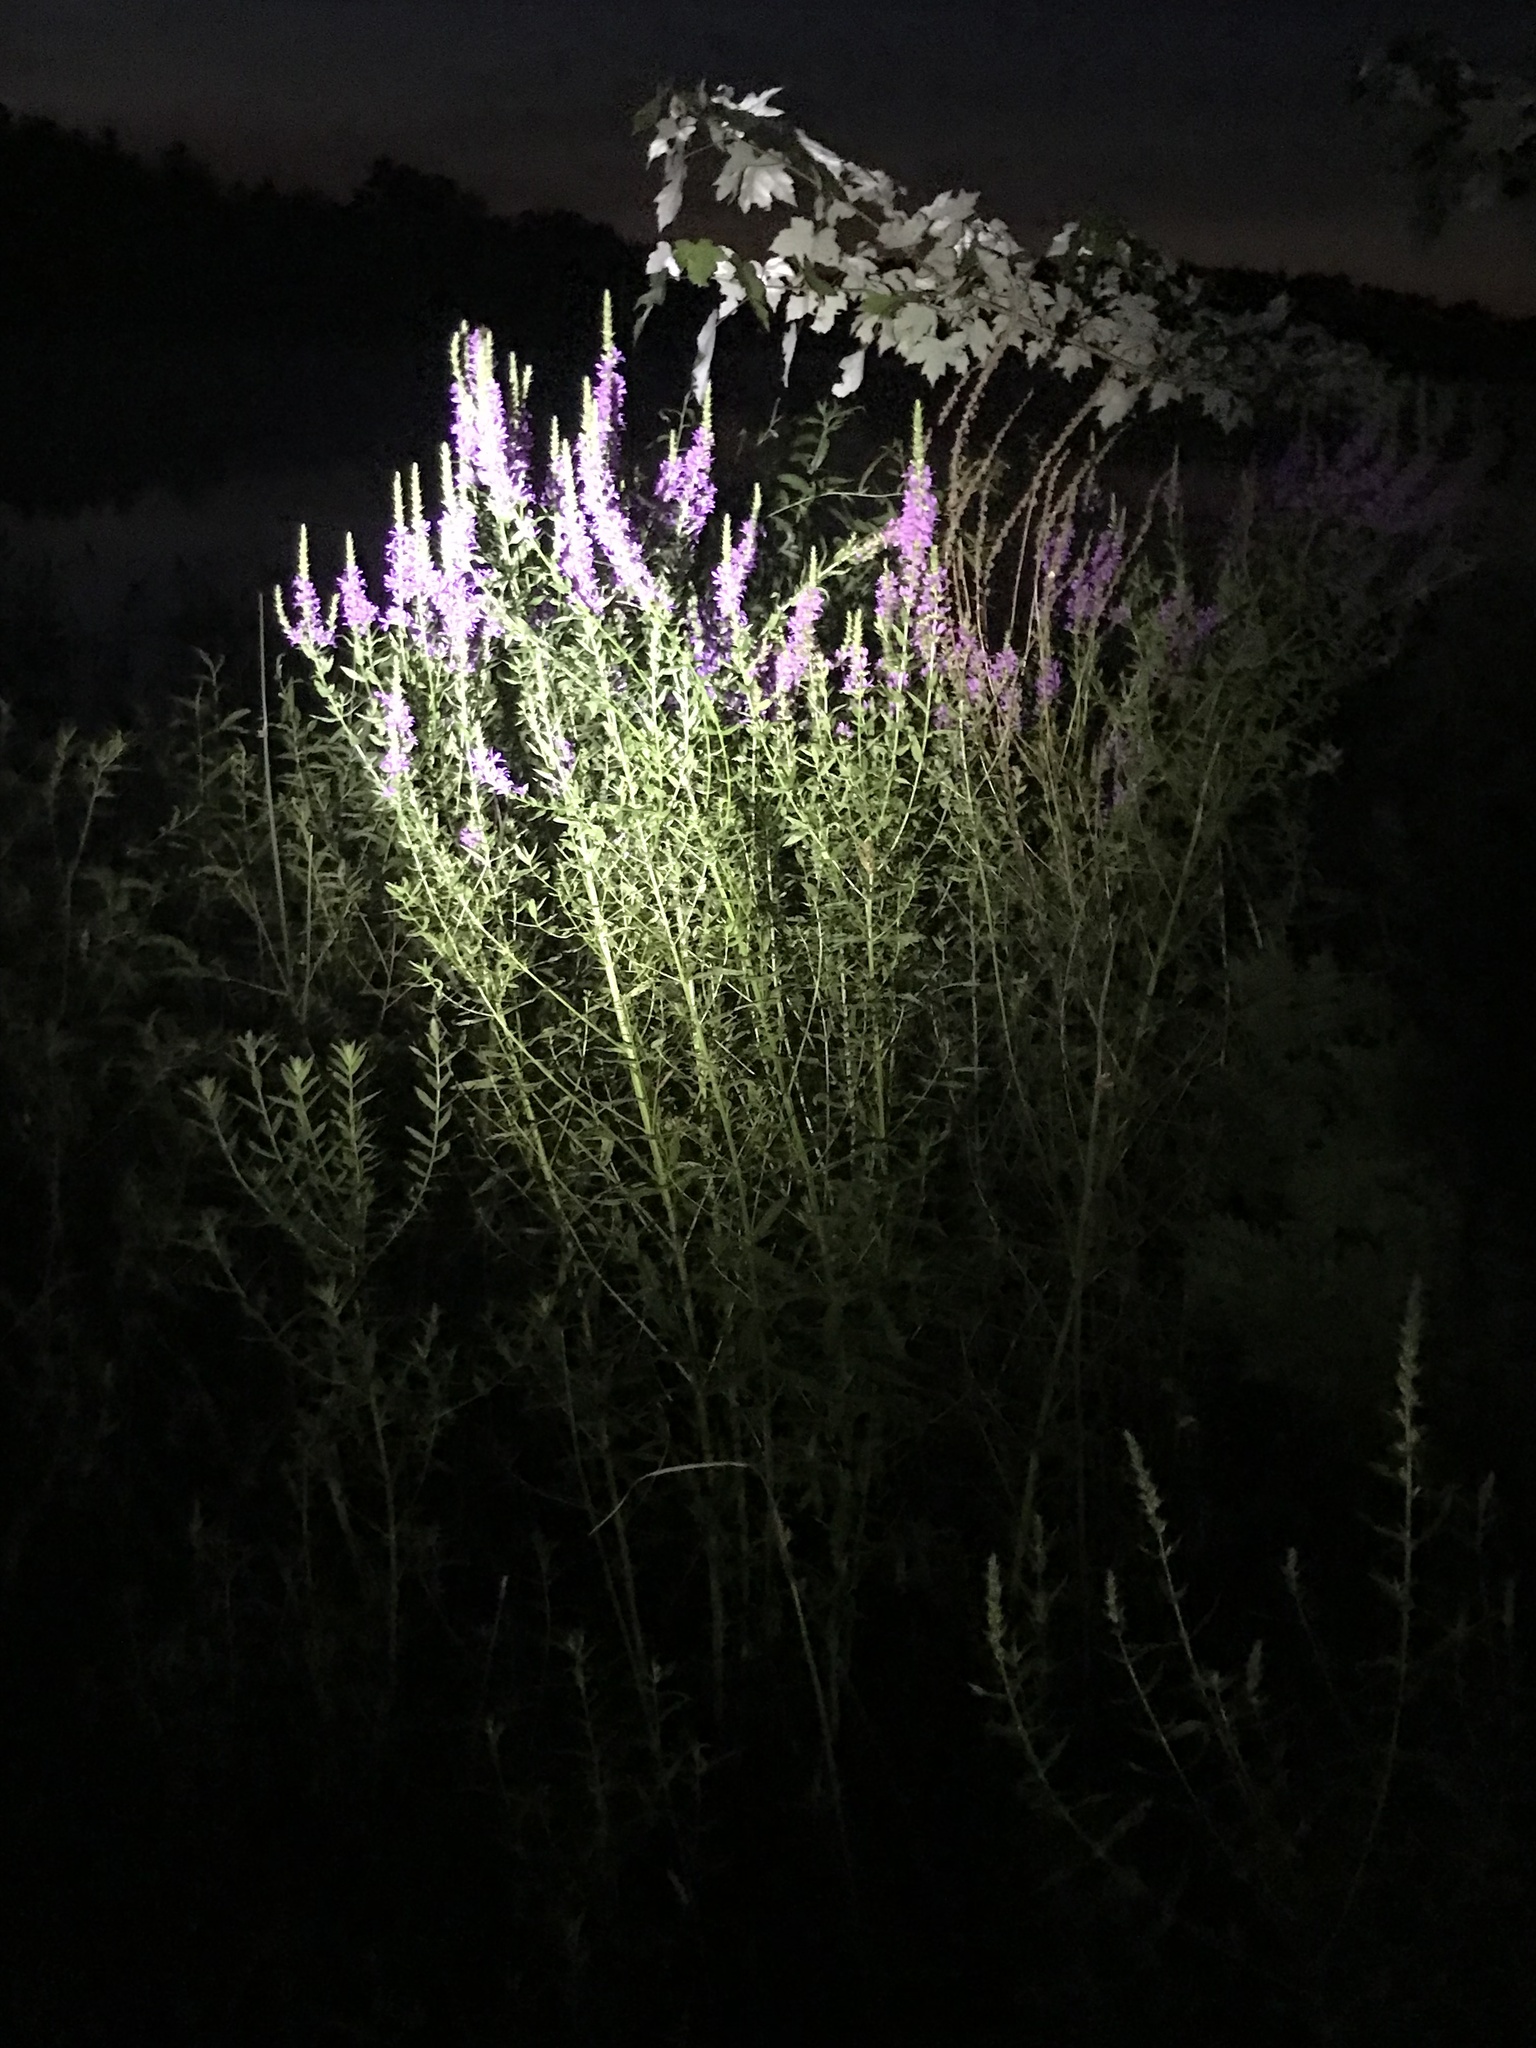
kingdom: Plantae
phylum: Tracheophyta
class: Magnoliopsida
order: Myrtales
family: Lythraceae
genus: Lythrum
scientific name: Lythrum salicaria
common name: Purple loosestrife
